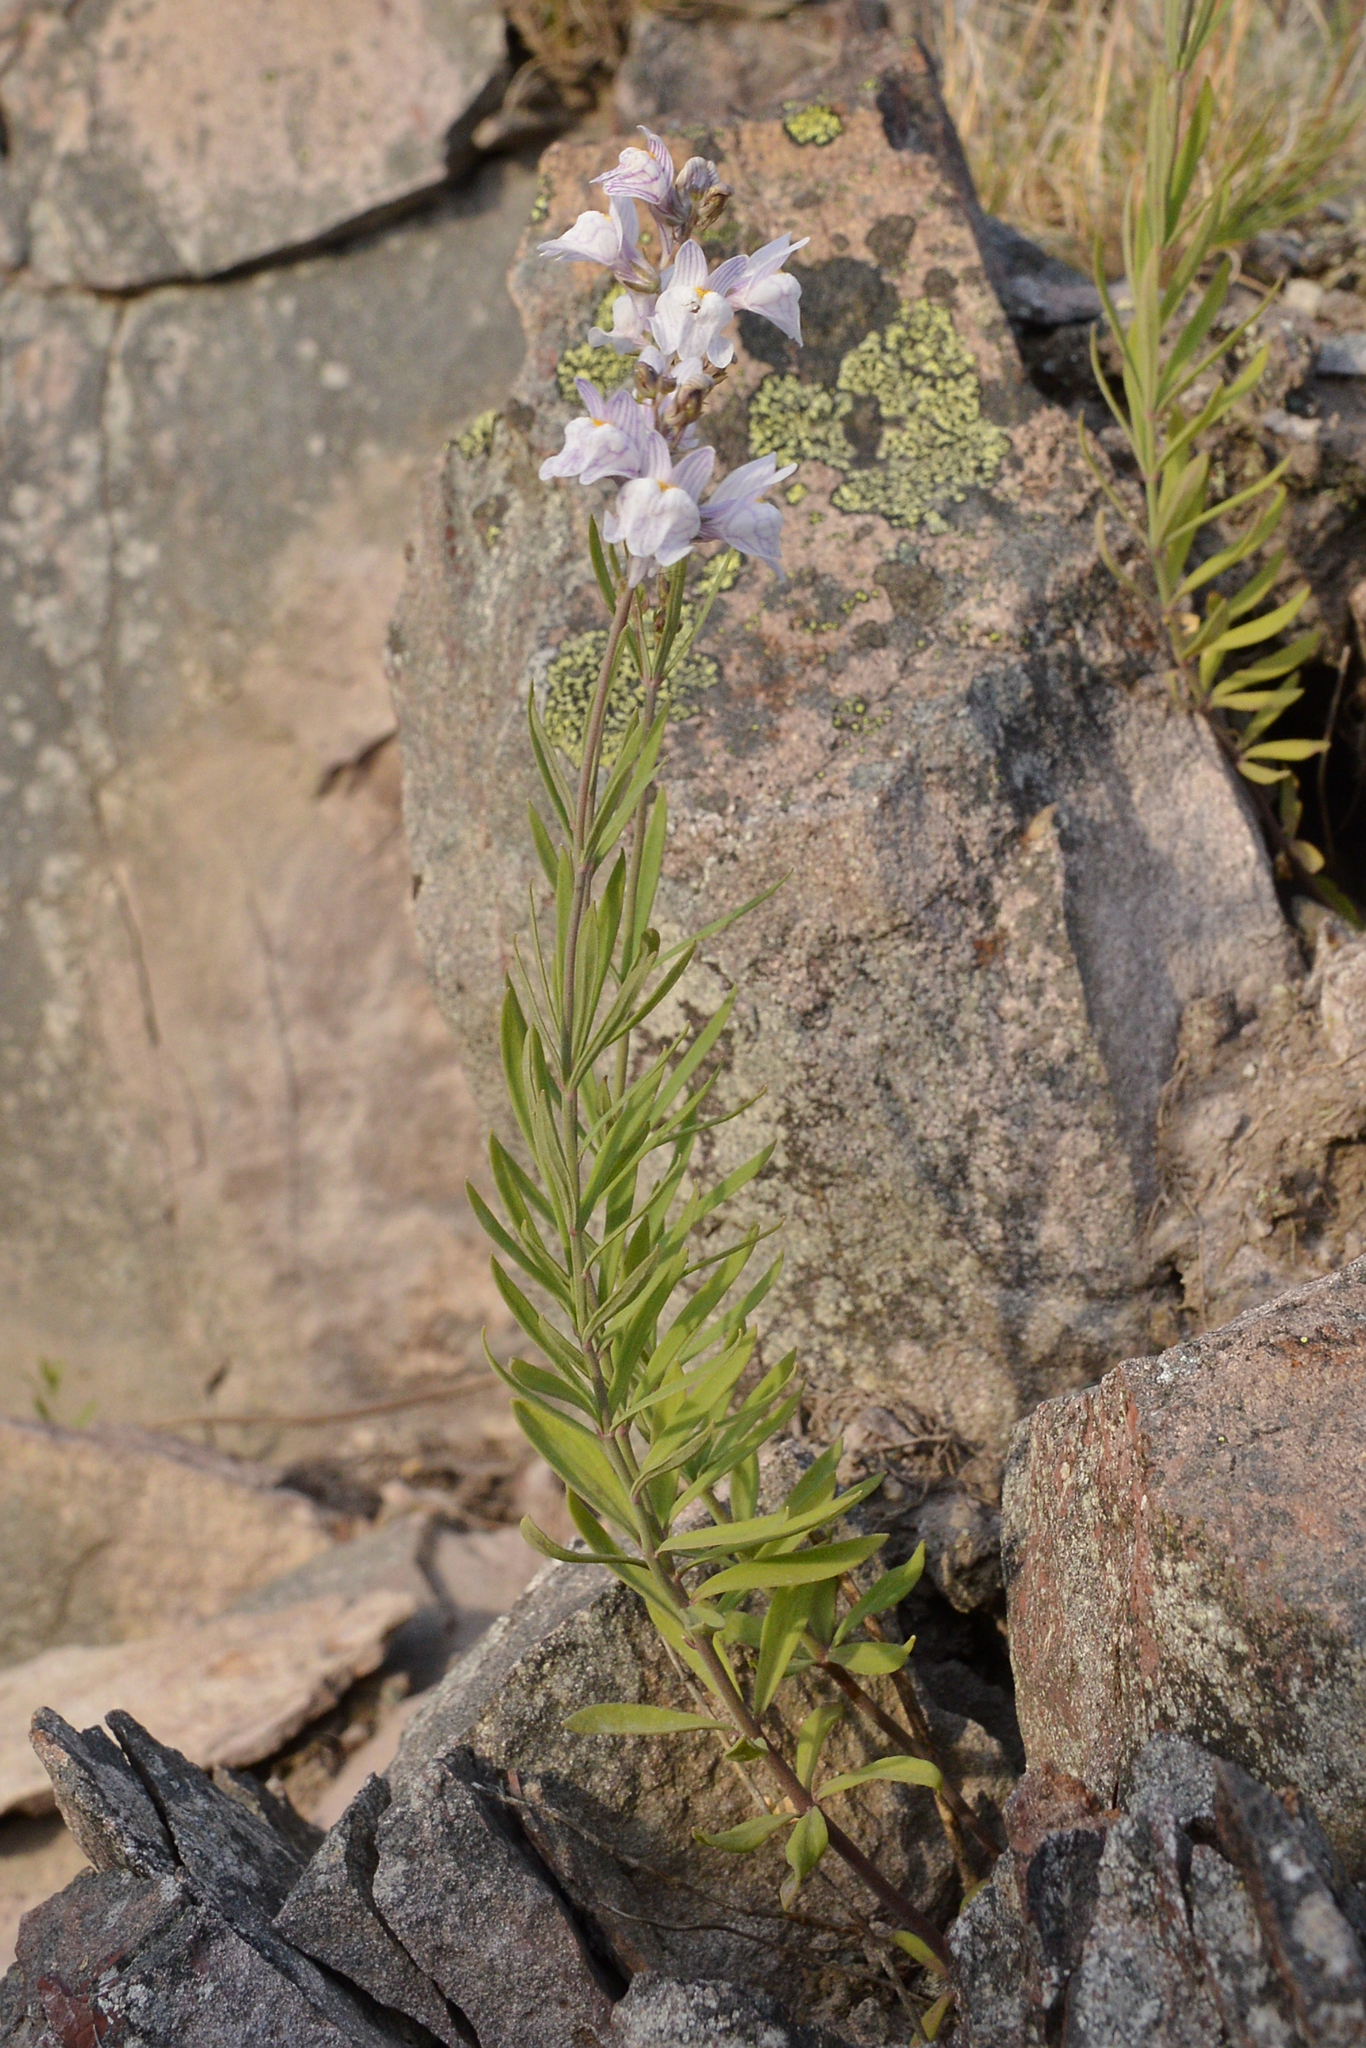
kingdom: Plantae
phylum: Tracheophyta
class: Magnoliopsida
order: Lamiales
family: Plantaginaceae
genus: Linaria
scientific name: Linaria repens
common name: Pale toadflax
